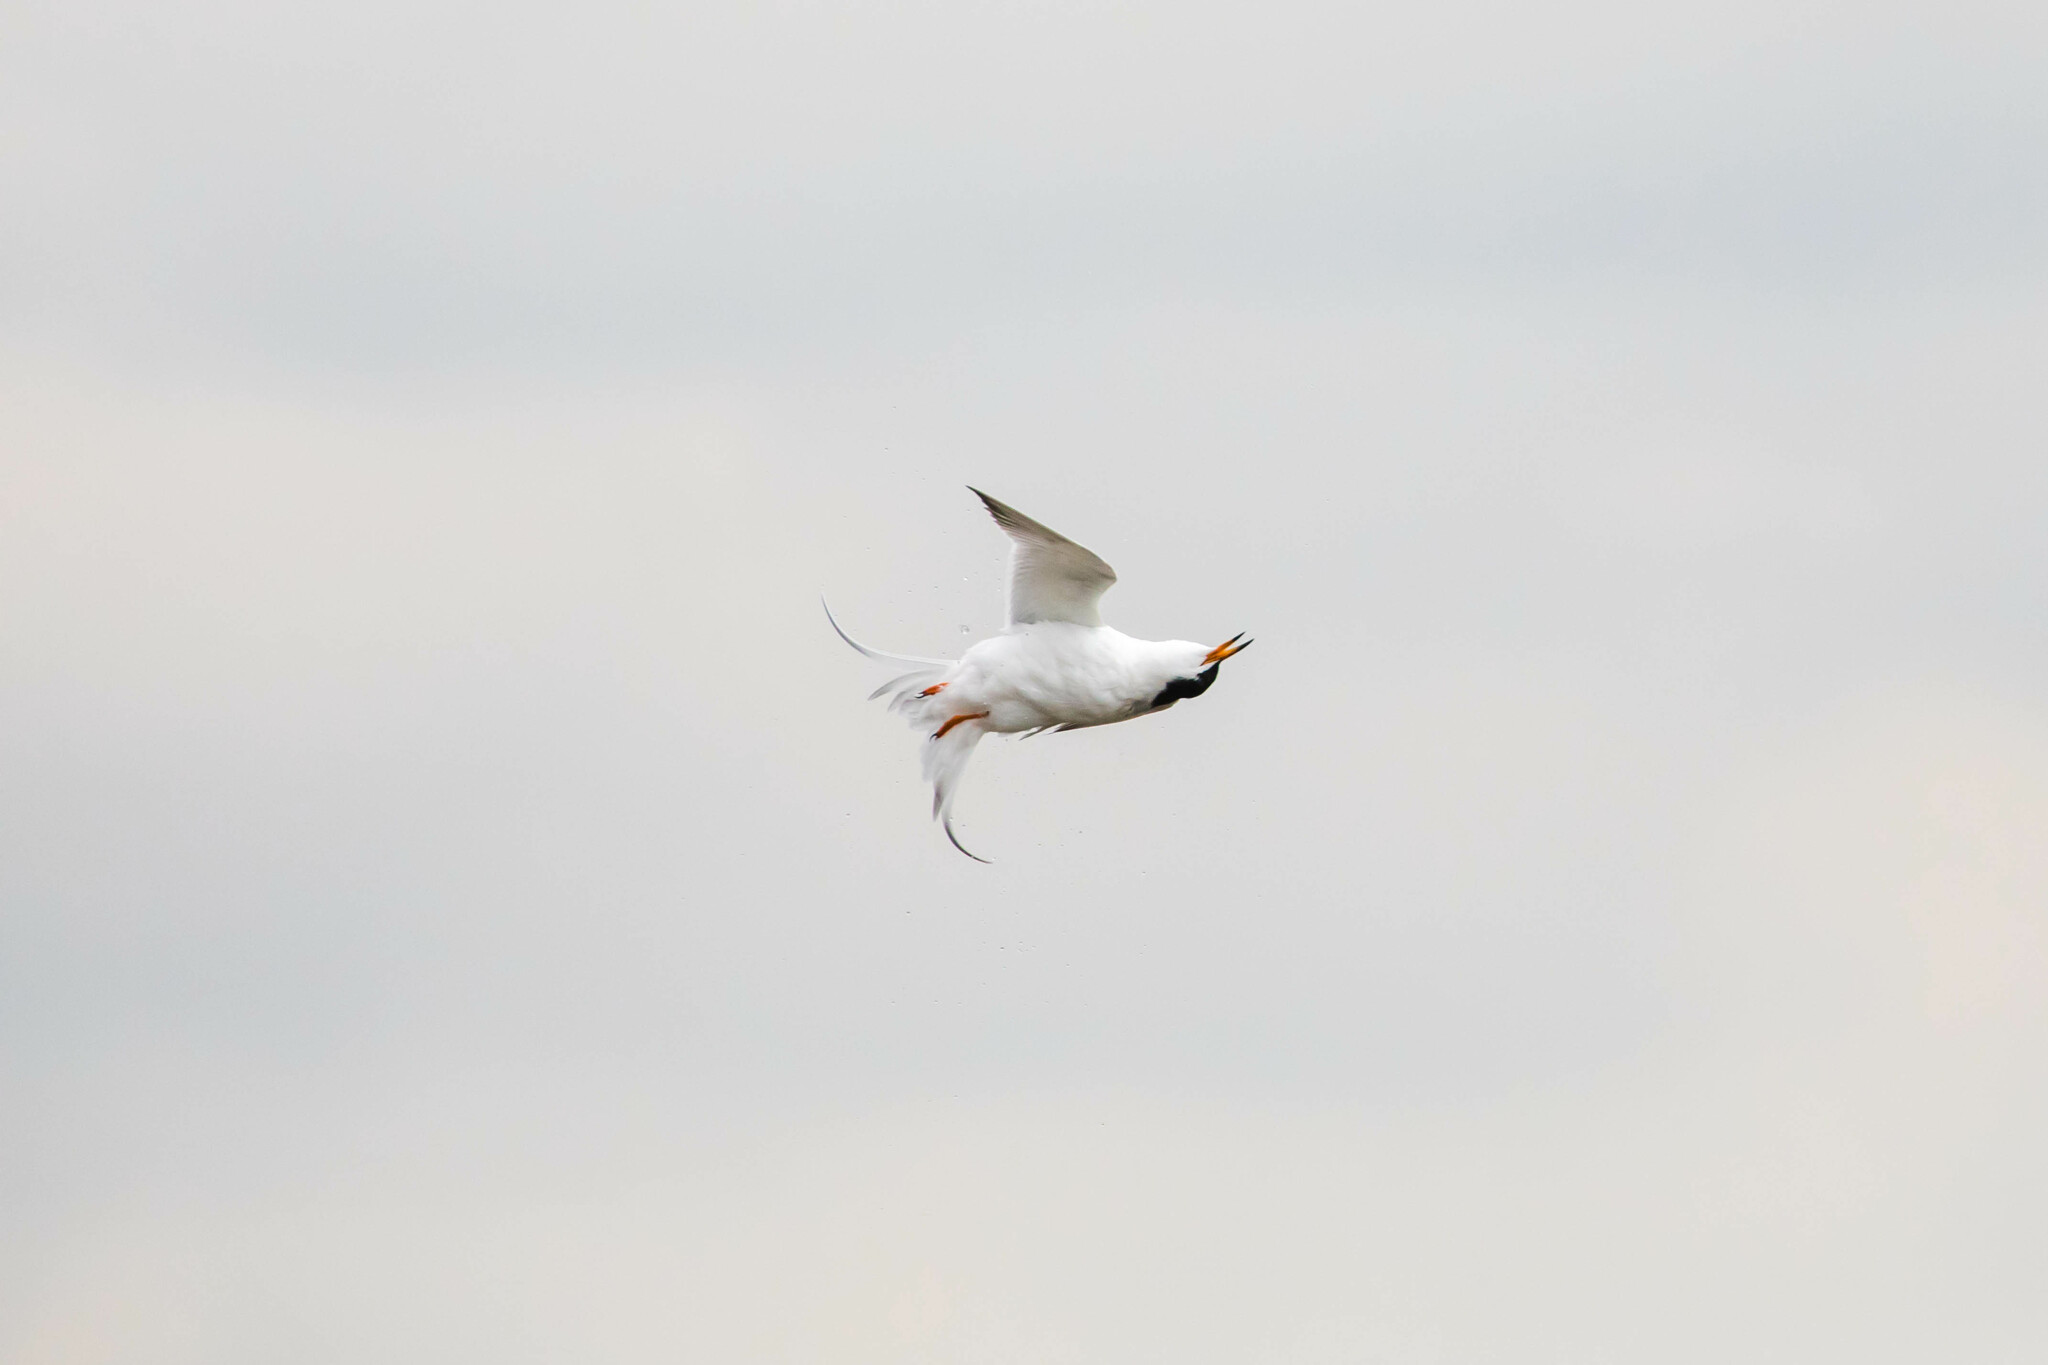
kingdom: Animalia
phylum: Chordata
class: Aves
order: Charadriiformes
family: Laridae
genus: Sterna
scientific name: Sterna forsteri
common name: Forster's tern
